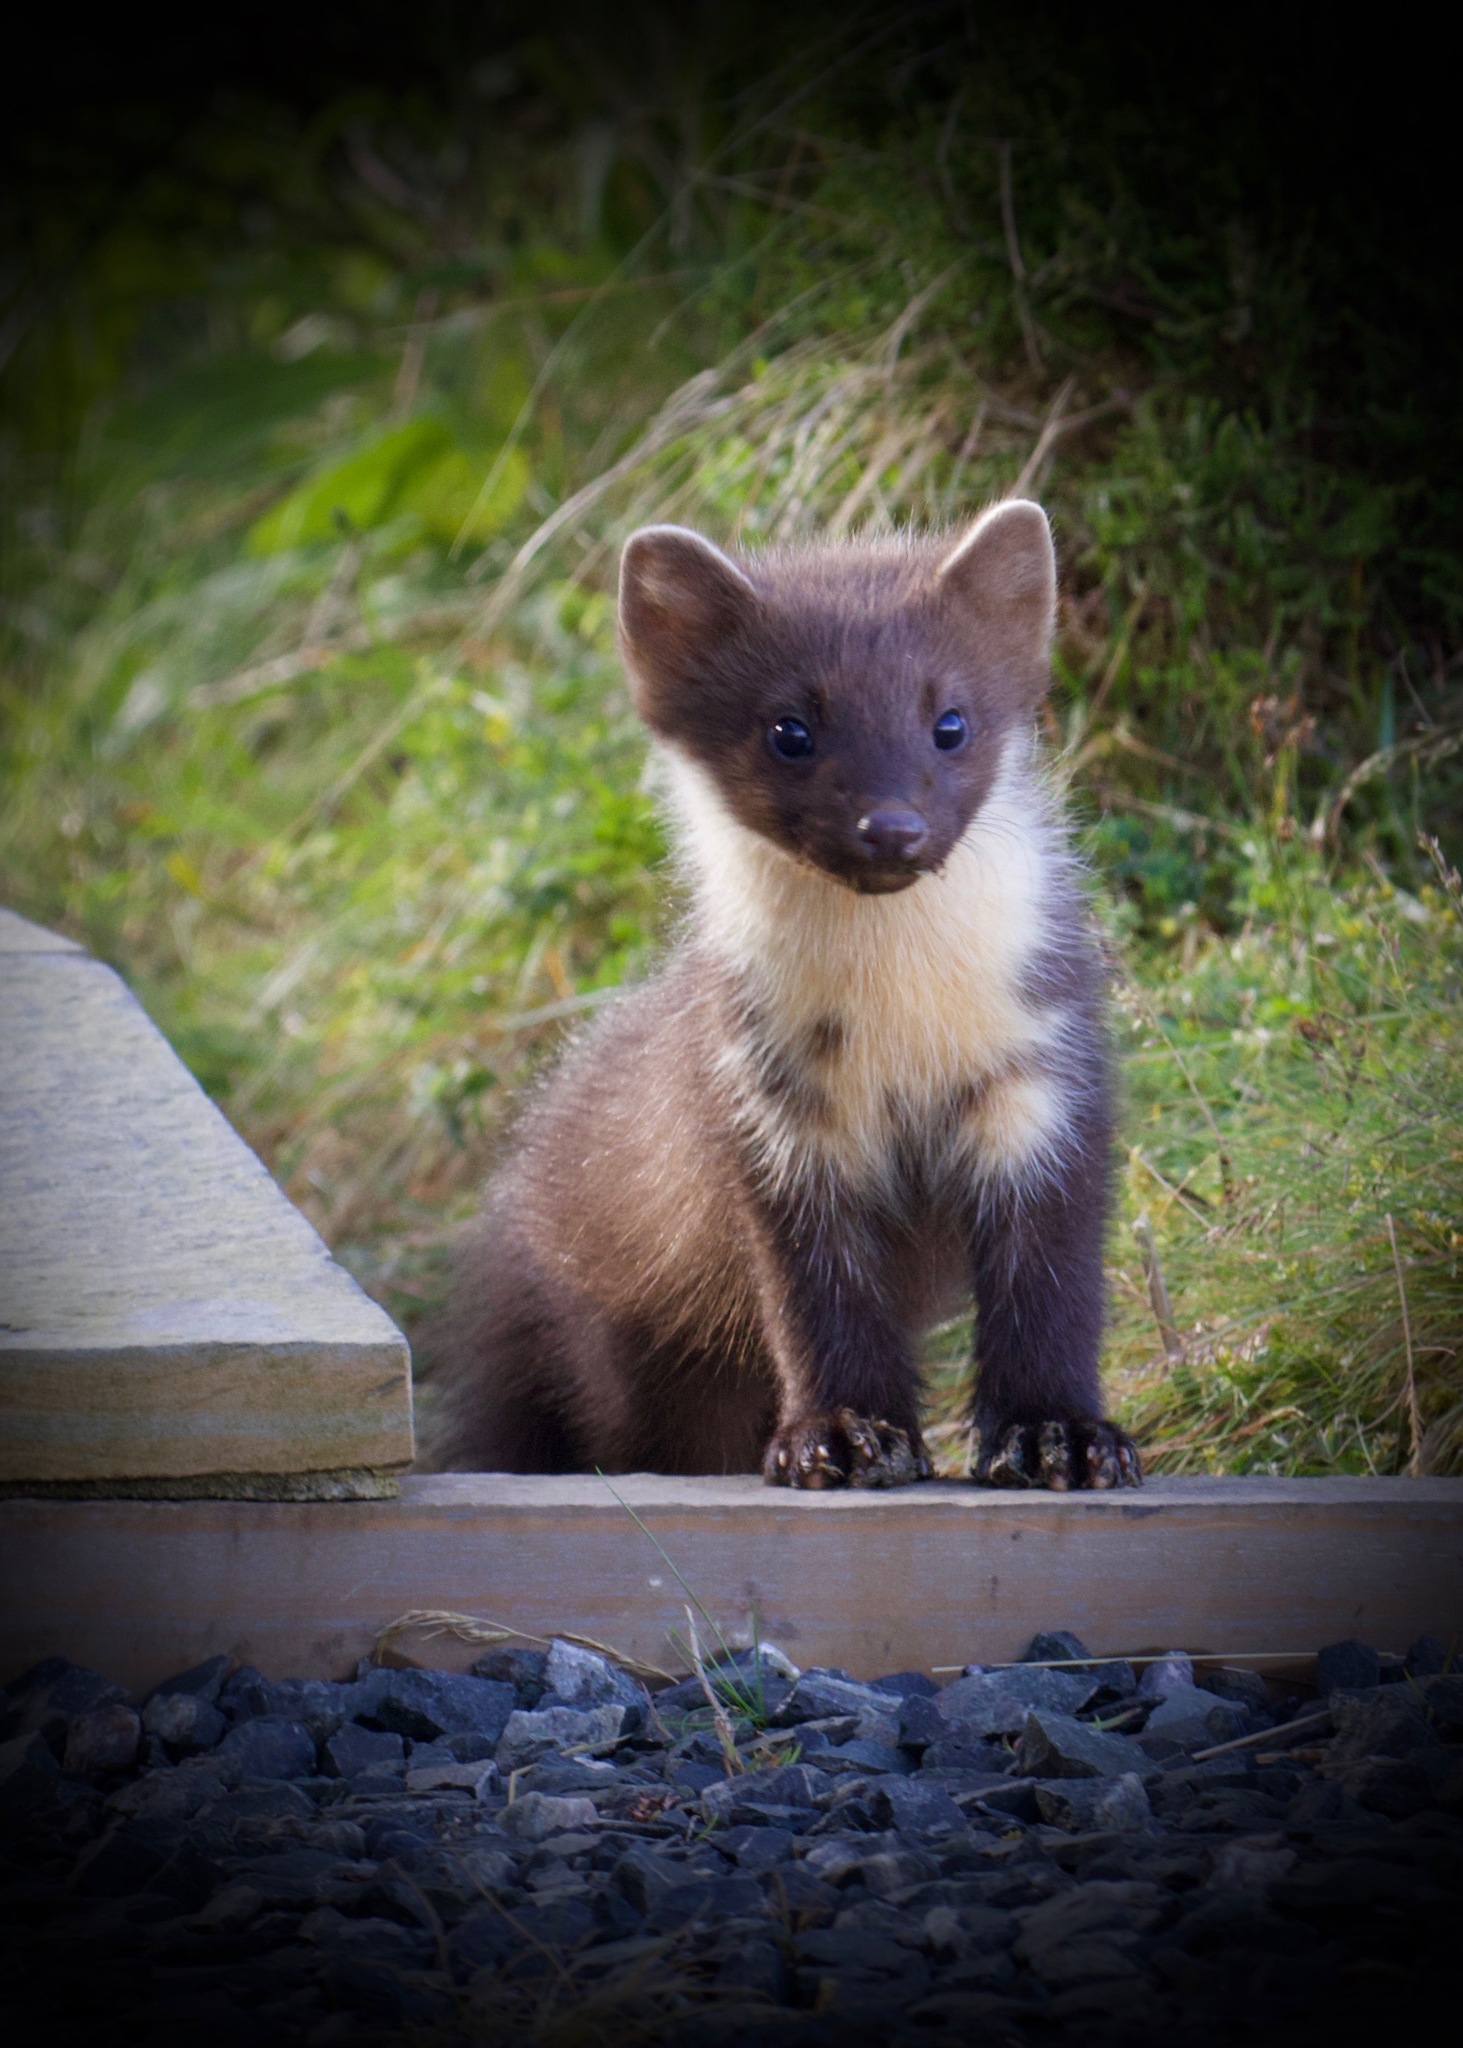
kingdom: Animalia
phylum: Chordata
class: Mammalia
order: Carnivora
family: Mustelidae
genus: Martes
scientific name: Martes martes
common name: European pine marten
